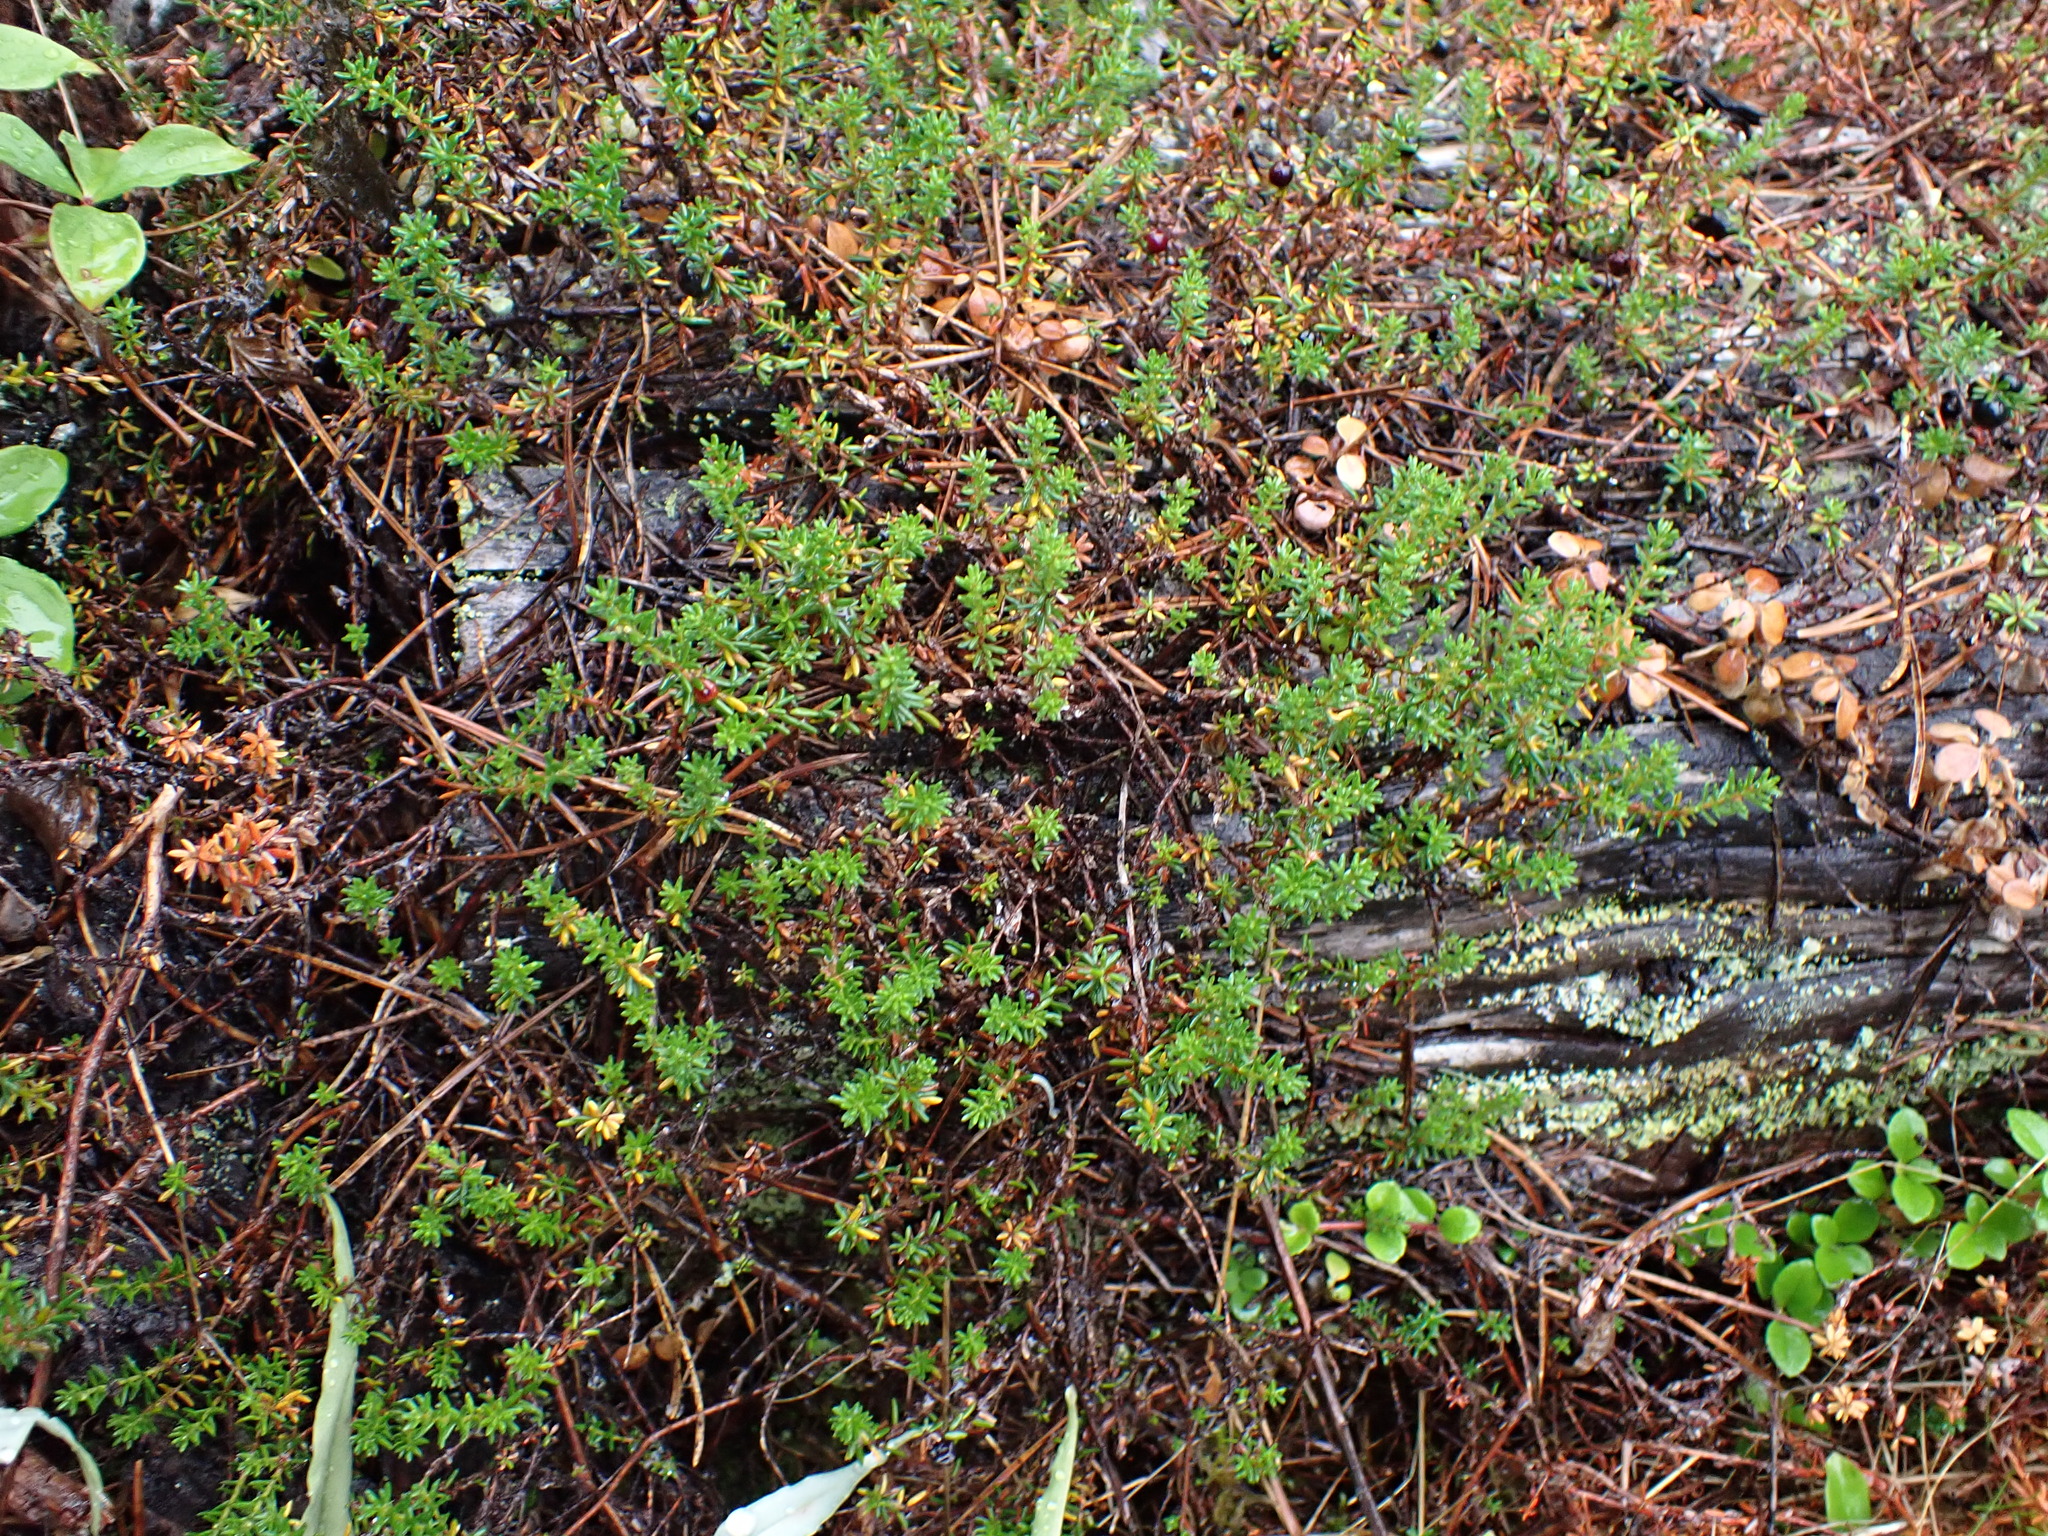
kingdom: Plantae
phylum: Tracheophyta
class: Magnoliopsida
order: Ericales
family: Ericaceae
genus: Empetrum
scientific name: Empetrum nigrum
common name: Black crowberry
